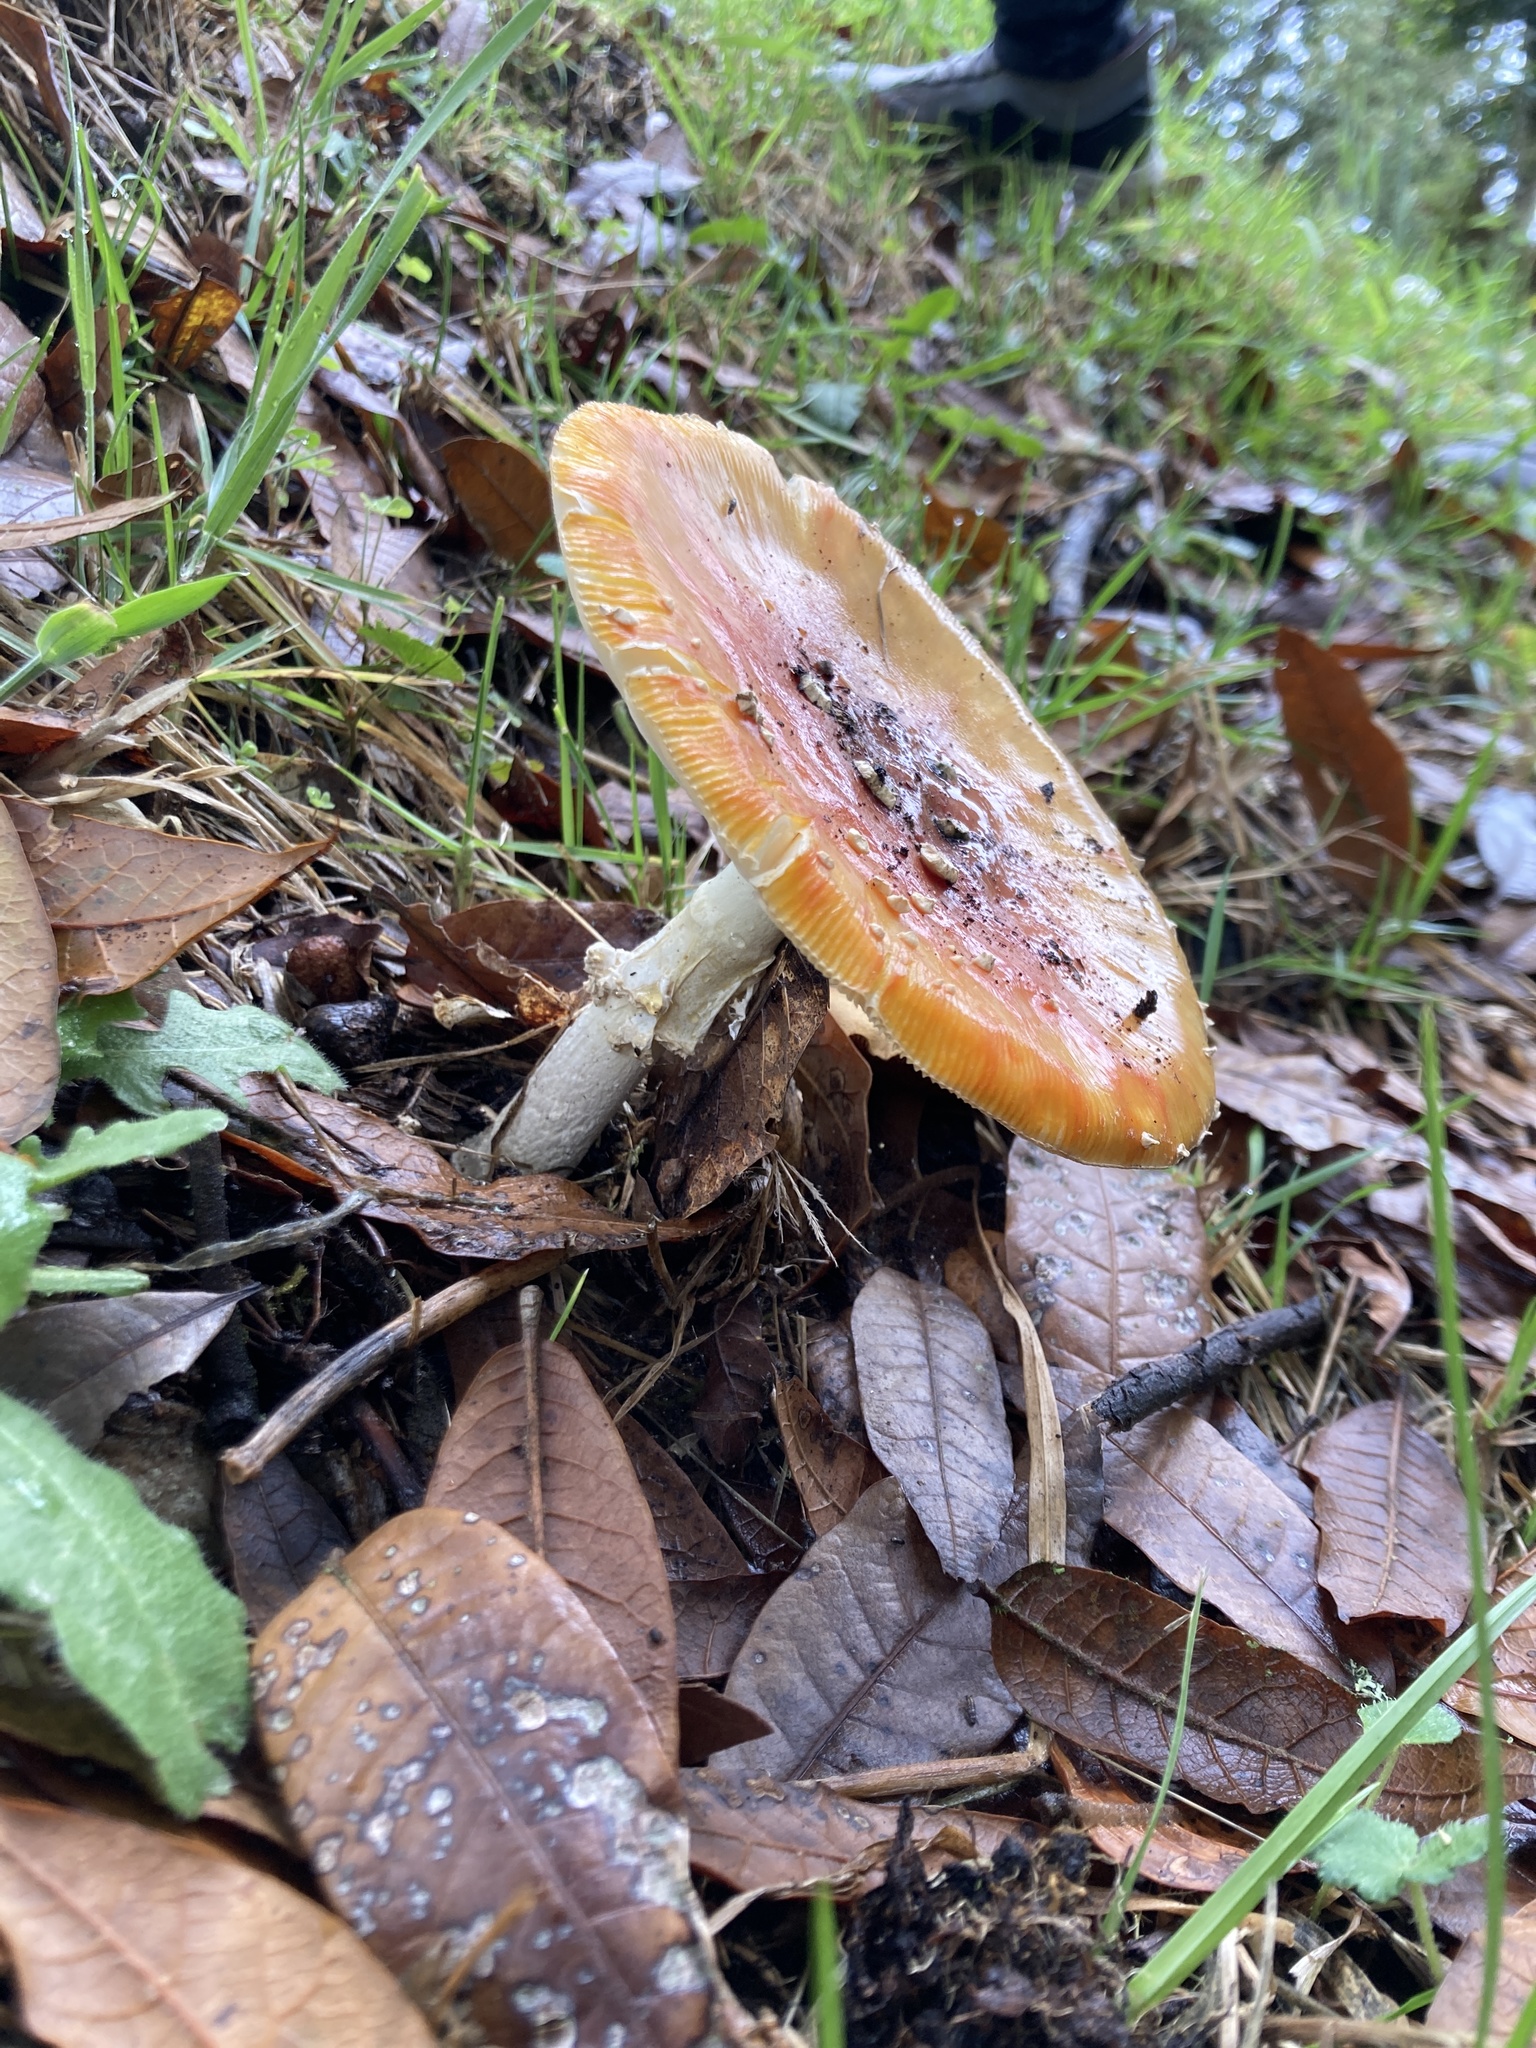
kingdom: Fungi
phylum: Basidiomycota
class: Agaricomycetes
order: Agaricales
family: Amanitaceae
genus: Amanita
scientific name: Amanita muscaria
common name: Fly agaric
